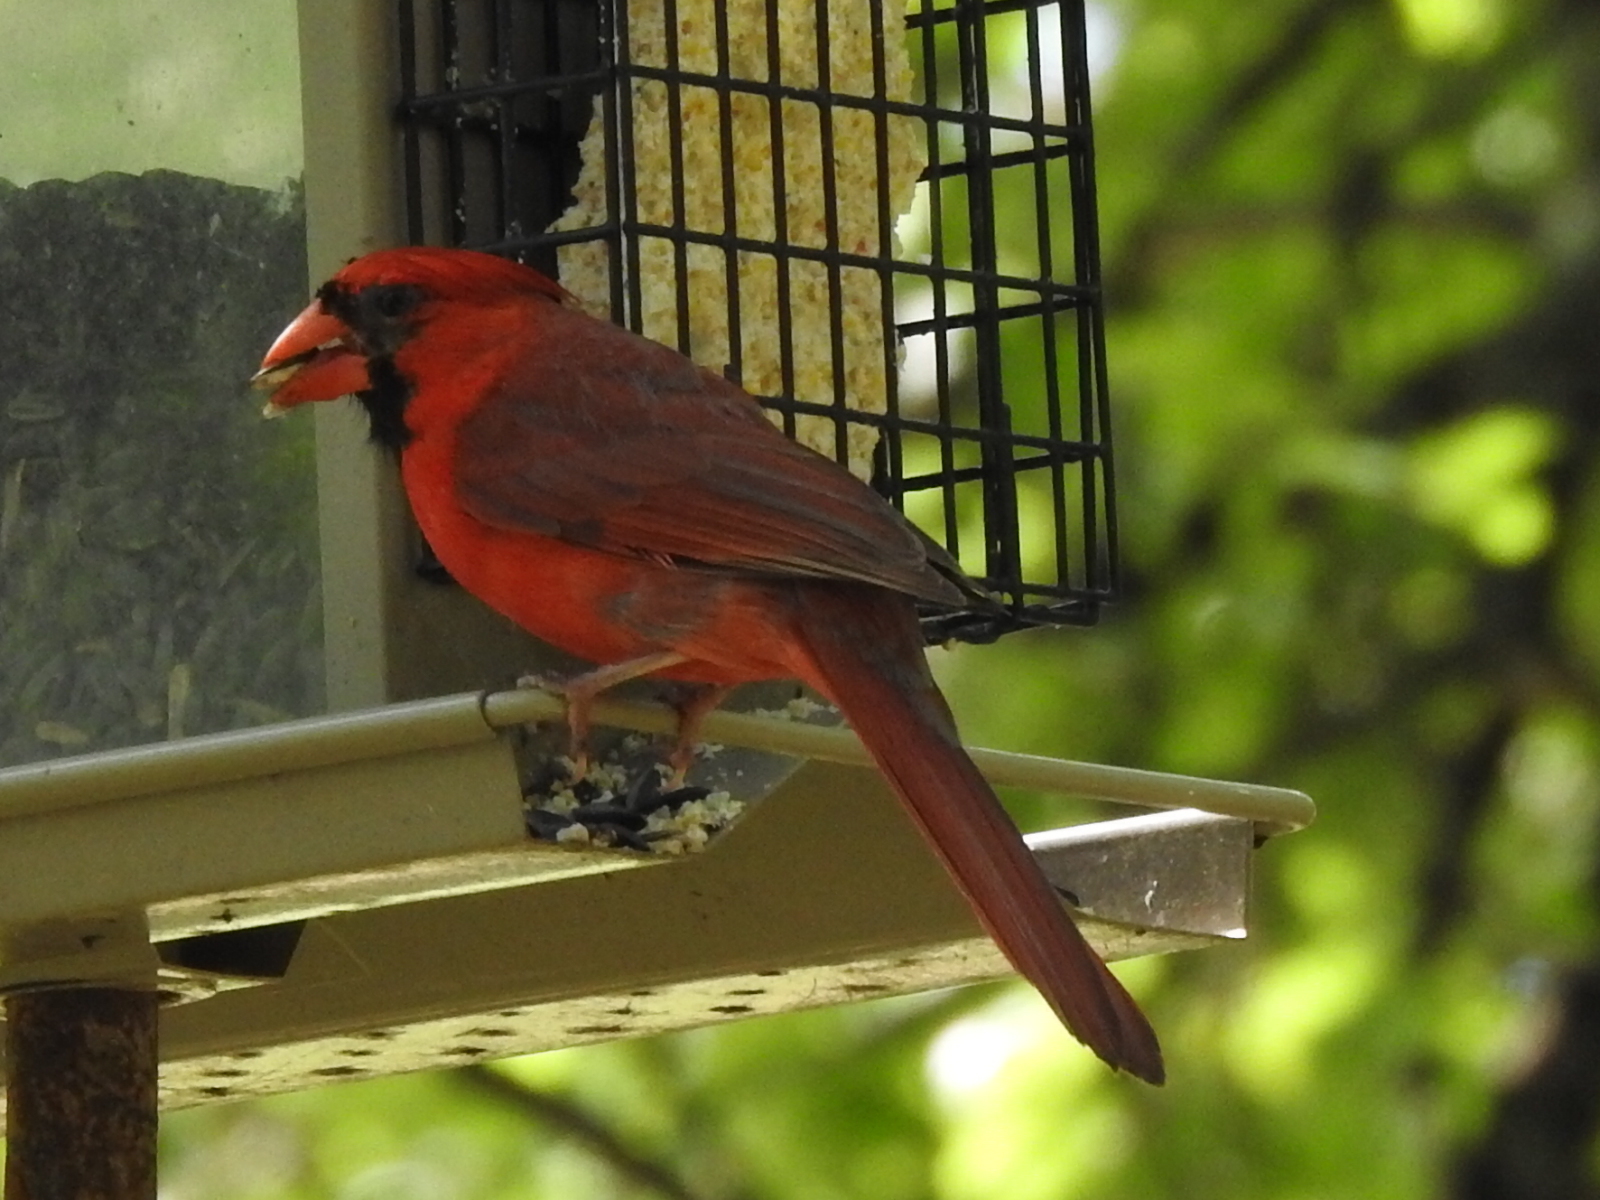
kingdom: Animalia
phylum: Chordata
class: Aves
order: Passeriformes
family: Cardinalidae
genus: Cardinalis
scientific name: Cardinalis cardinalis
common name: Northern cardinal
